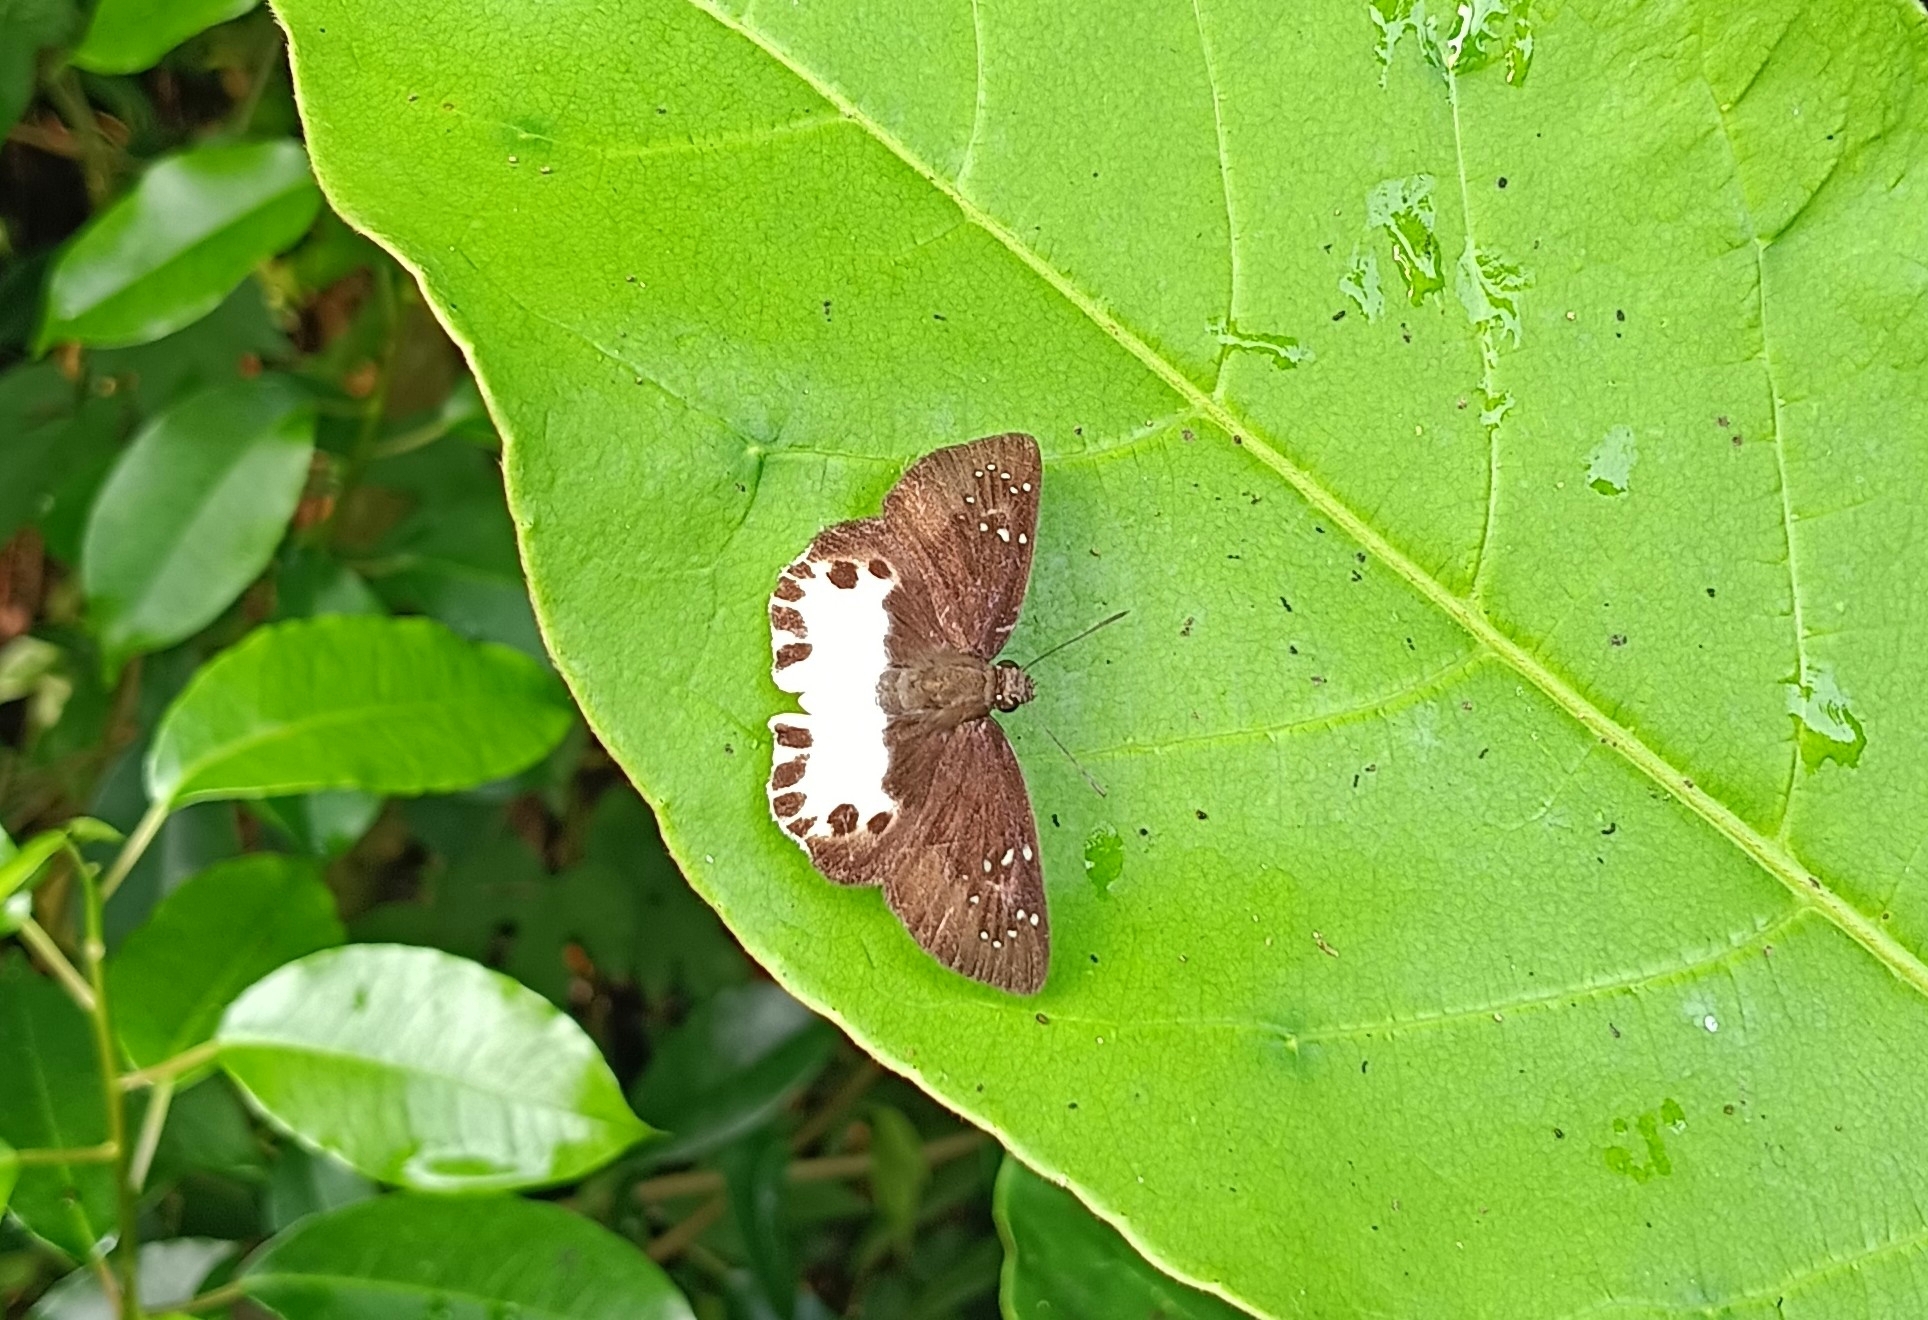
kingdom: Animalia
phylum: Arthropoda
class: Insecta
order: Lepidoptera
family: Hesperiidae
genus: Tagiades
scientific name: Tagiades litigiosa
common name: Water snow flat
